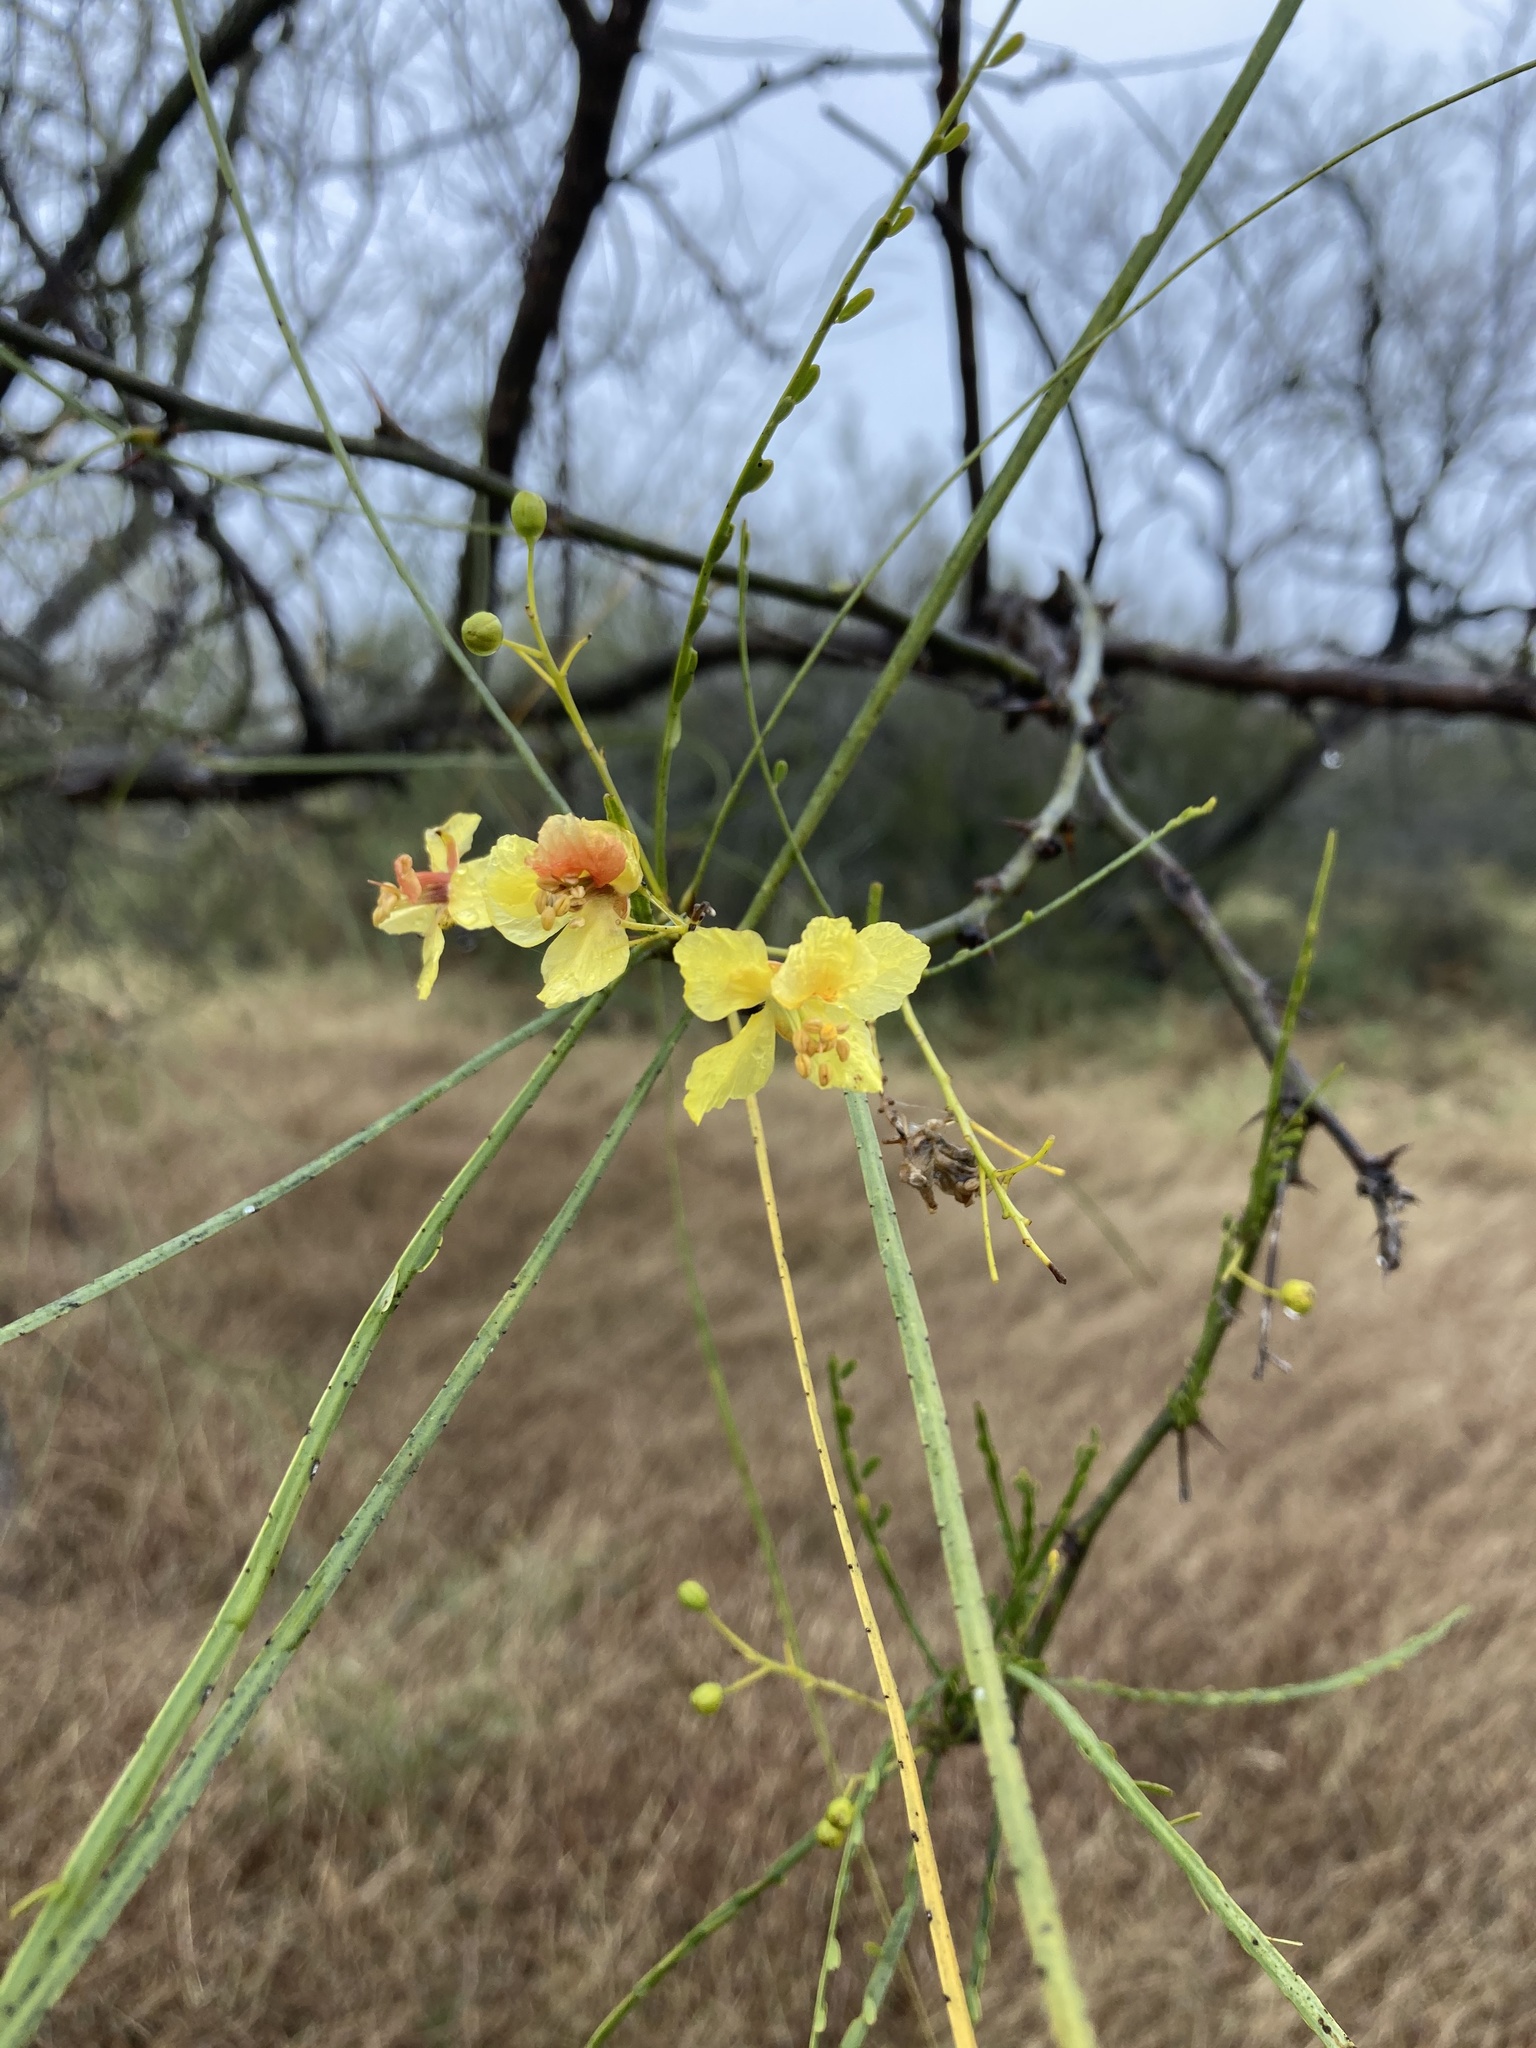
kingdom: Plantae
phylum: Tracheophyta
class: Magnoliopsida
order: Fabales
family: Fabaceae
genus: Parkinsonia
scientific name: Parkinsonia aculeata
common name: Jerusalem thorn
